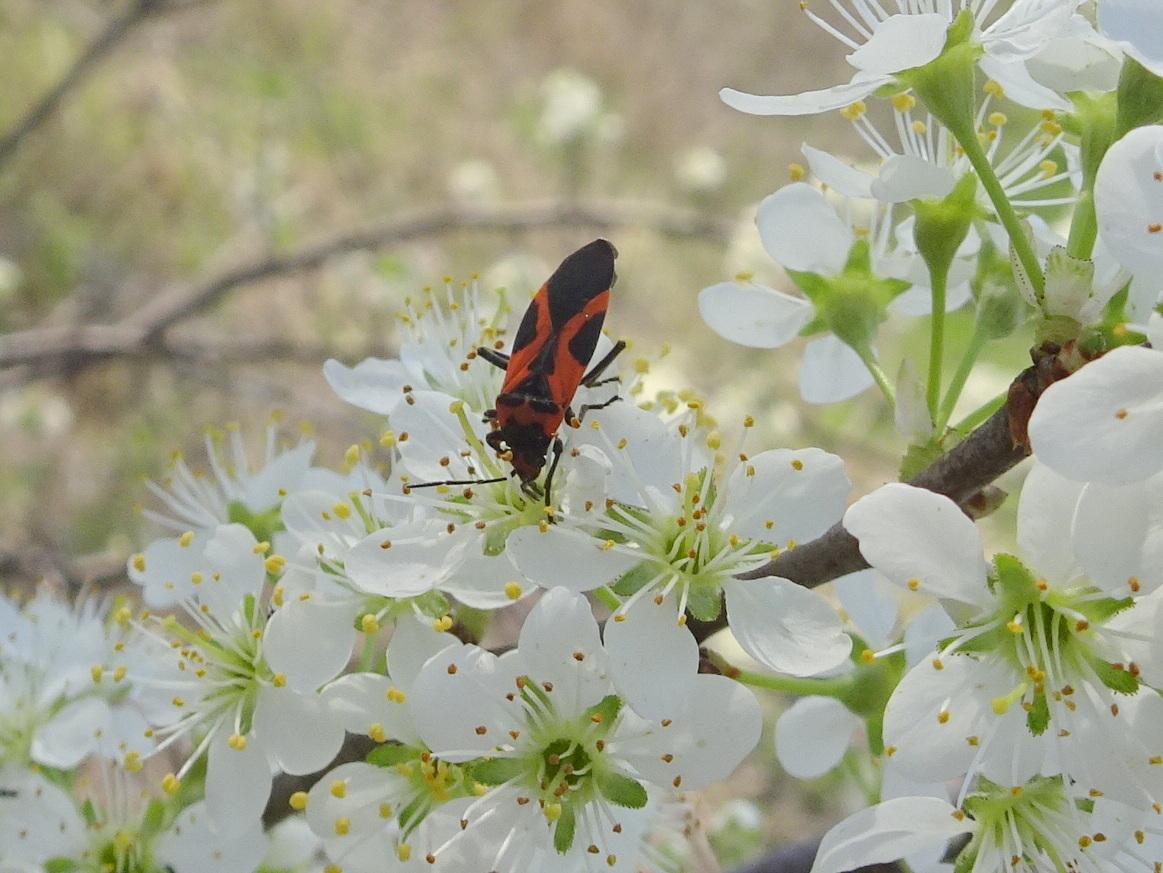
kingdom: Animalia
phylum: Arthropoda
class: Insecta
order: Hemiptera
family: Lygaeidae
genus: Lygaeus
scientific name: Lygaeus turcicus
